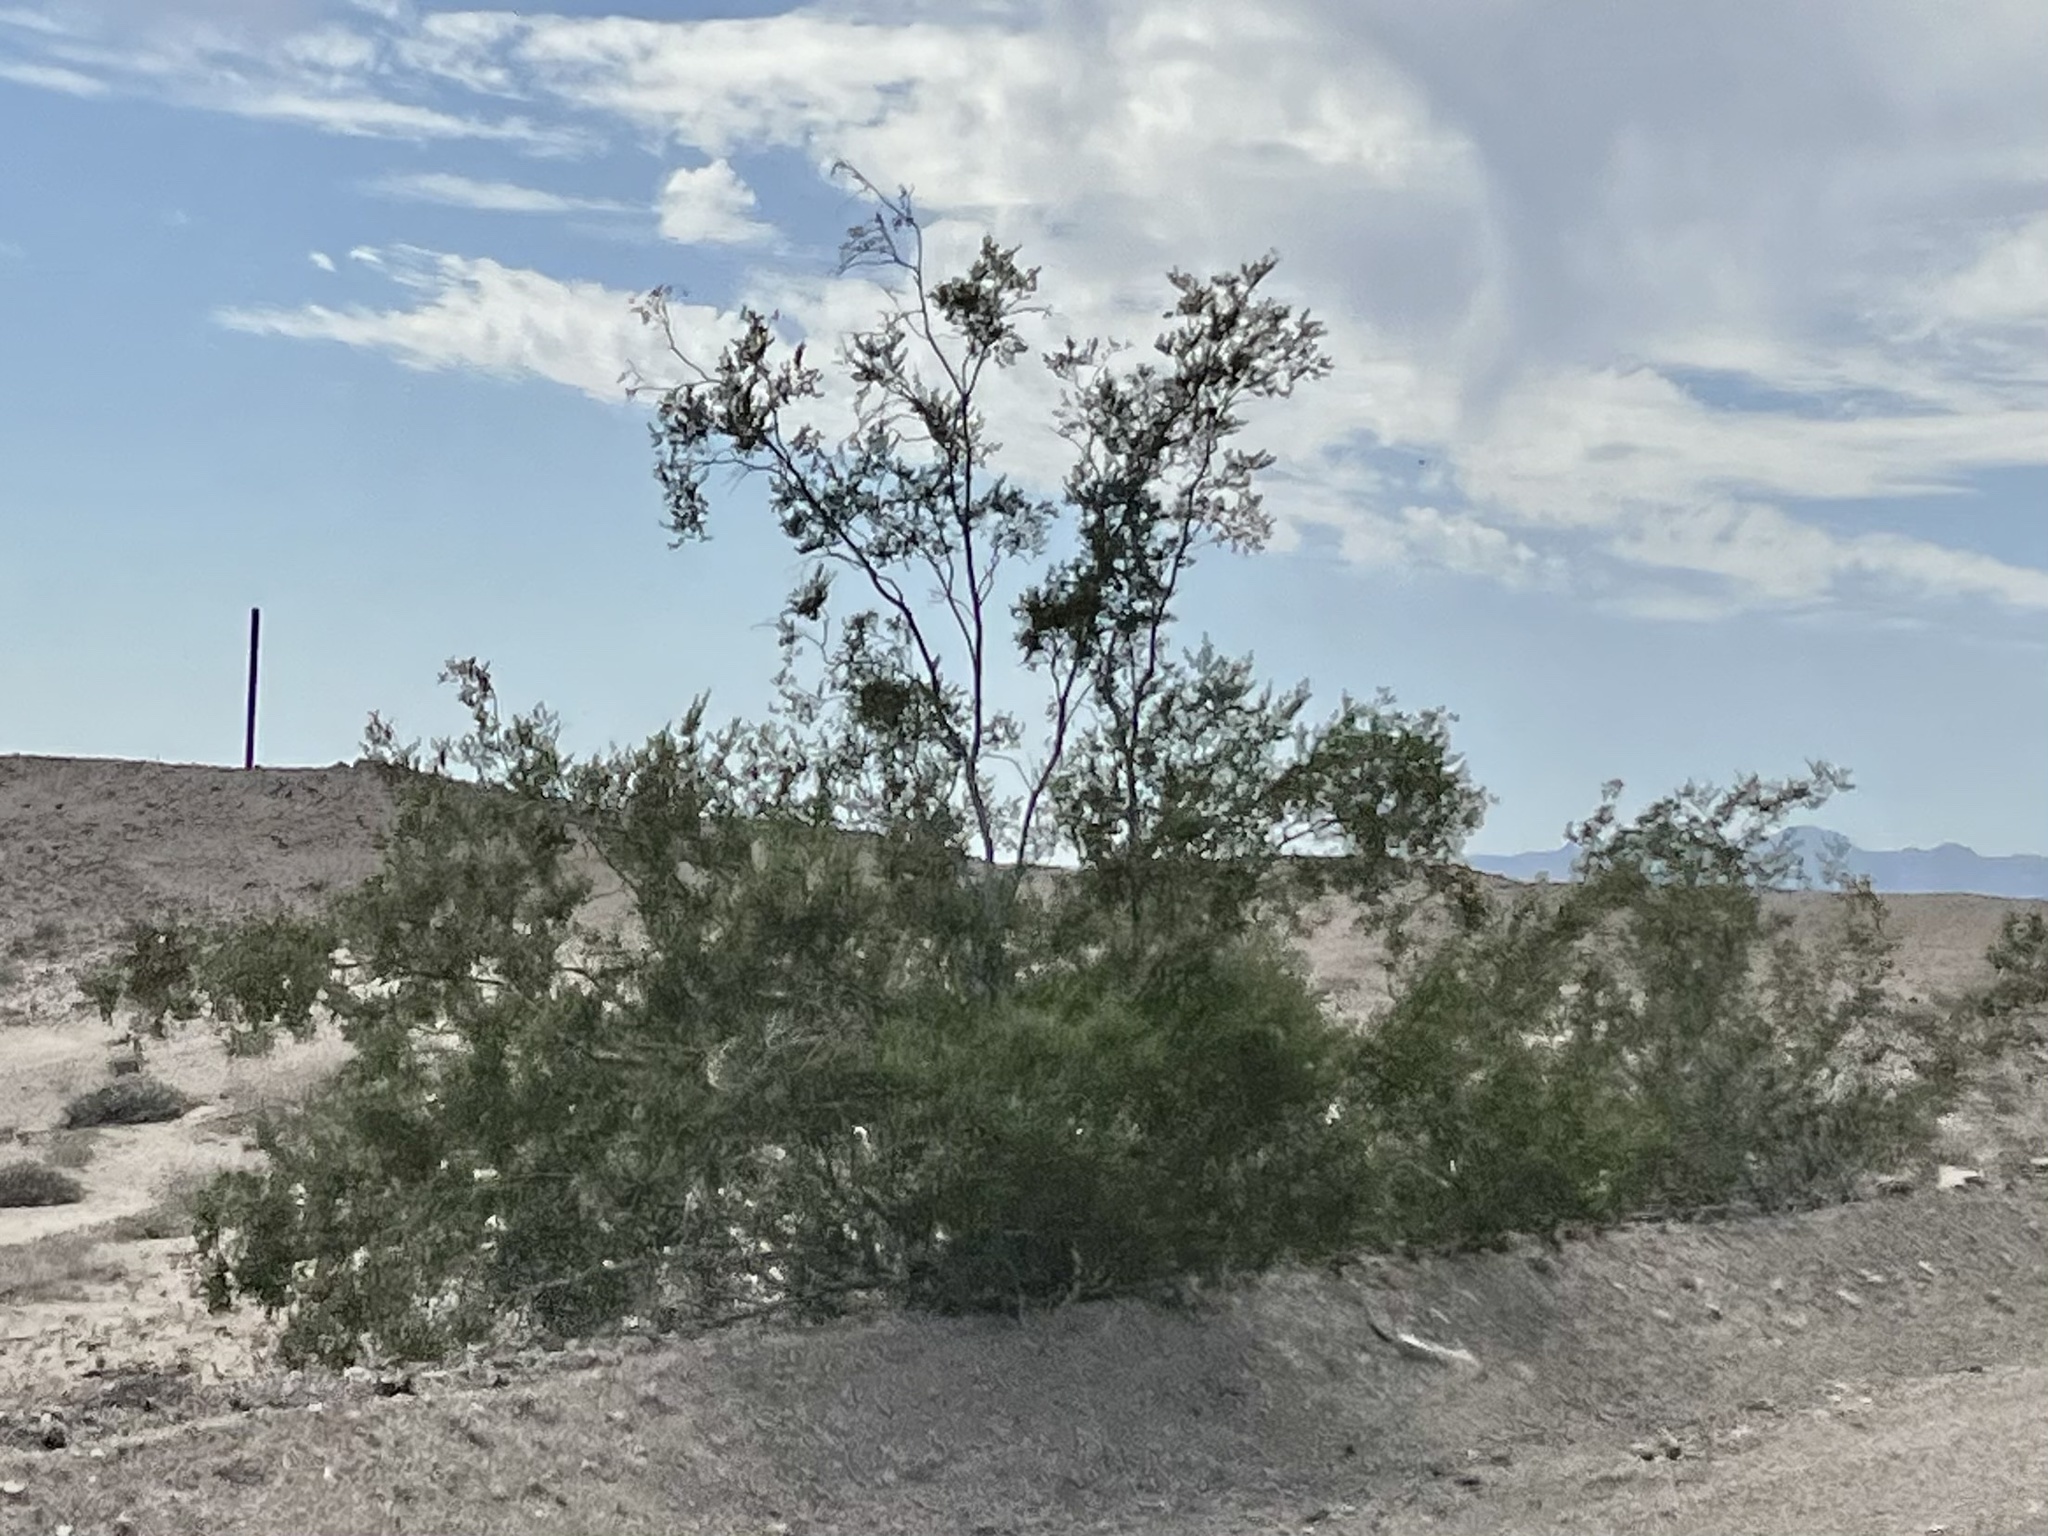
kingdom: Plantae
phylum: Tracheophyta
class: Magnoliopsida
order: Zygophyllales
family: Zygophyllaceae
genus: Larrea
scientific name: Larrea tridentata
